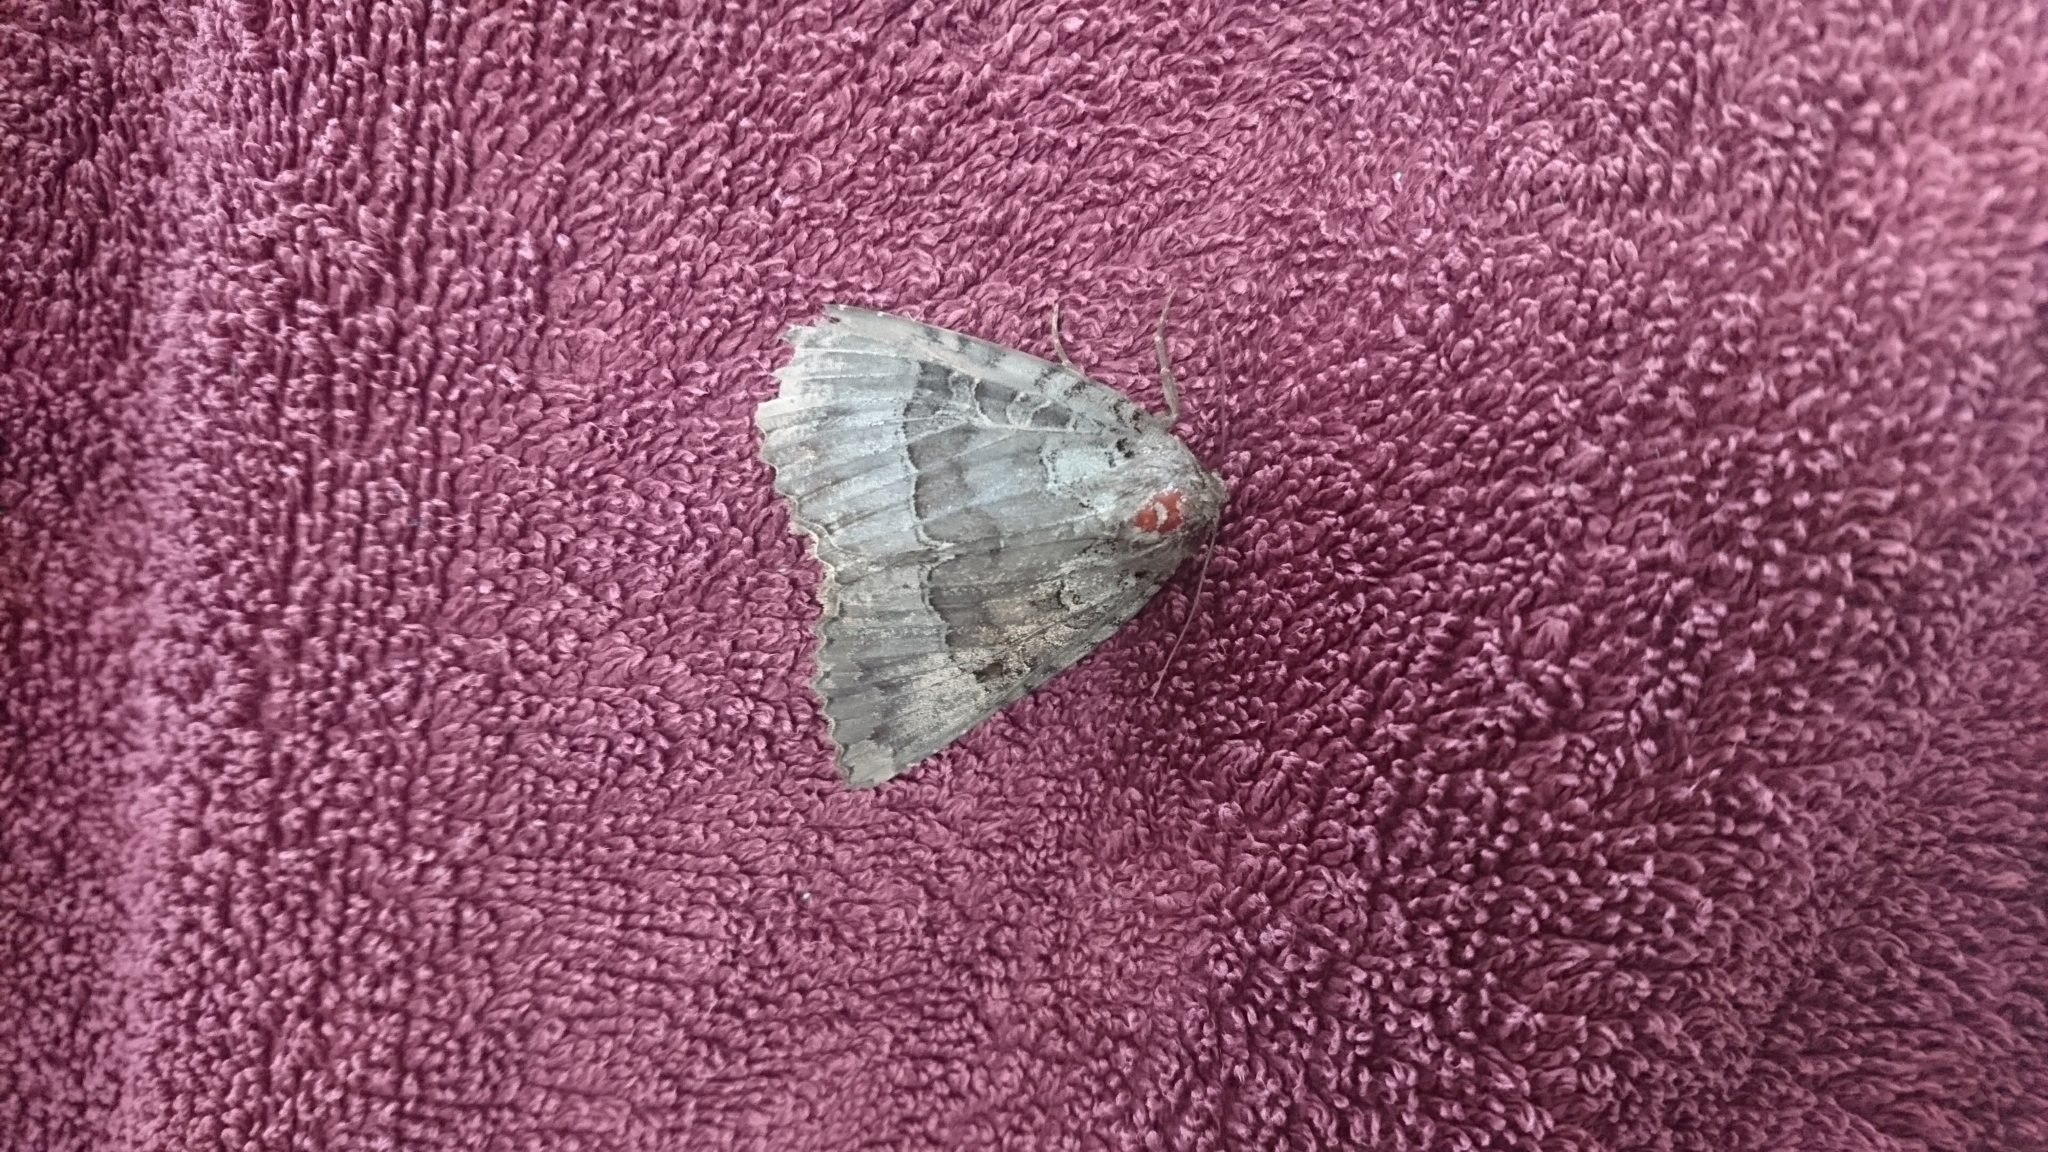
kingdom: Animalia
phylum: Arthropoda
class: Insecta
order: Lepidoptera
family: Noctuidae
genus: Mormo
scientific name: Mormo maura
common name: Old lady
